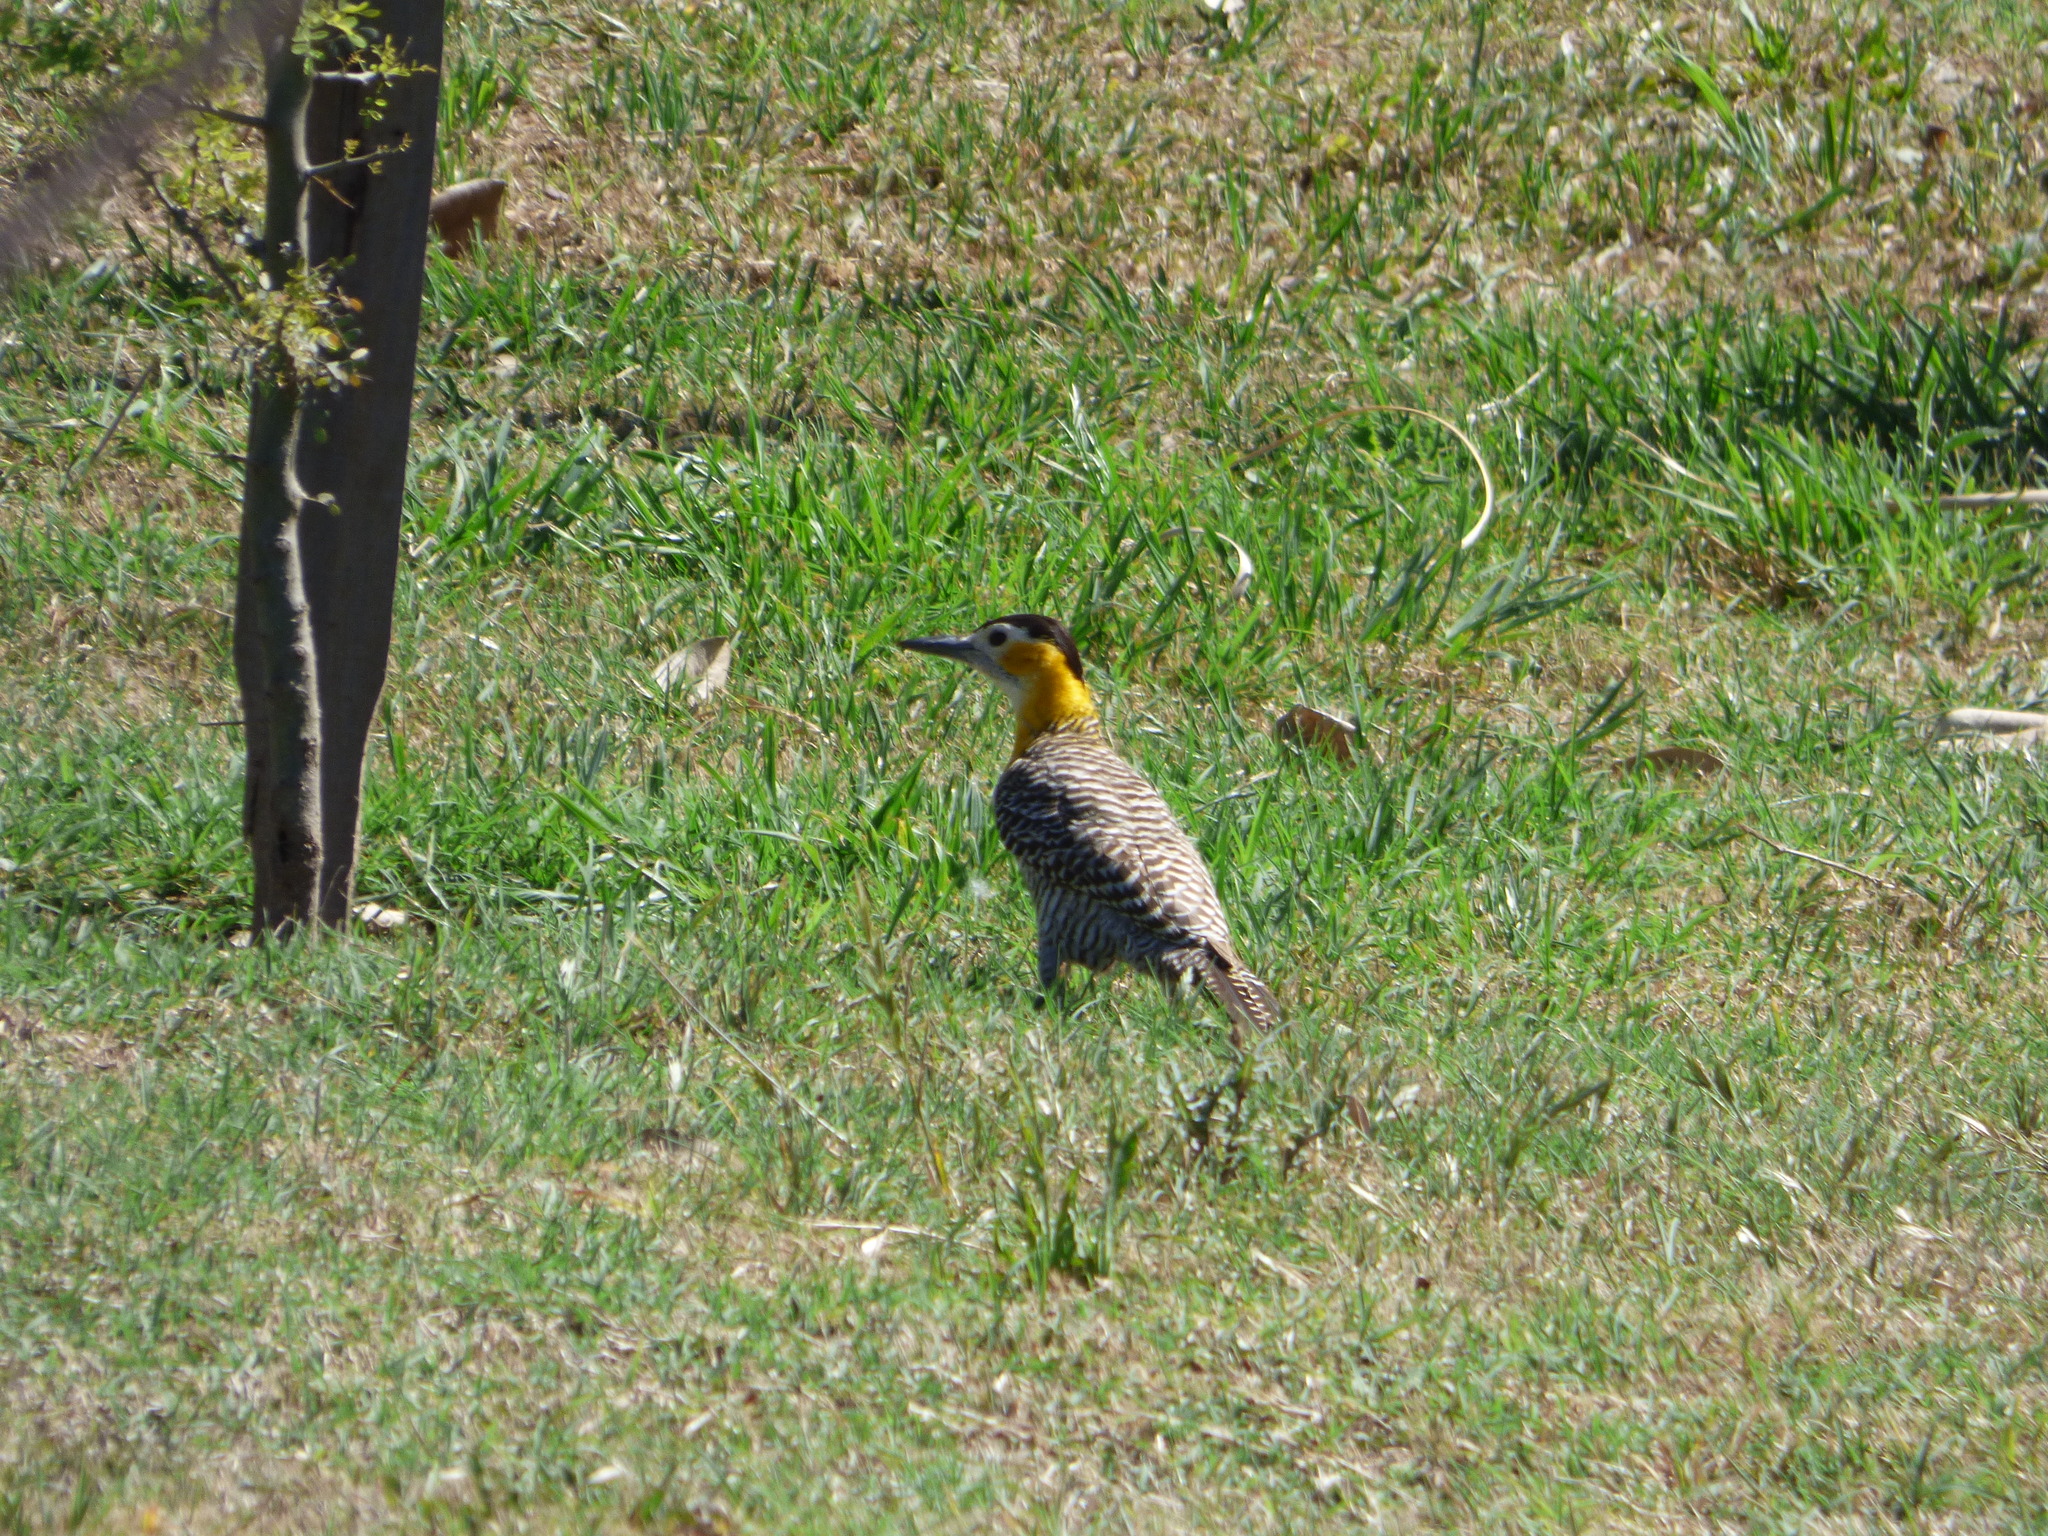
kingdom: Animalia
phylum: Chordata
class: Aves
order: Piciformes
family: Picidae
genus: Colaptes
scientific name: Colaptes campestris
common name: Campo flicker
